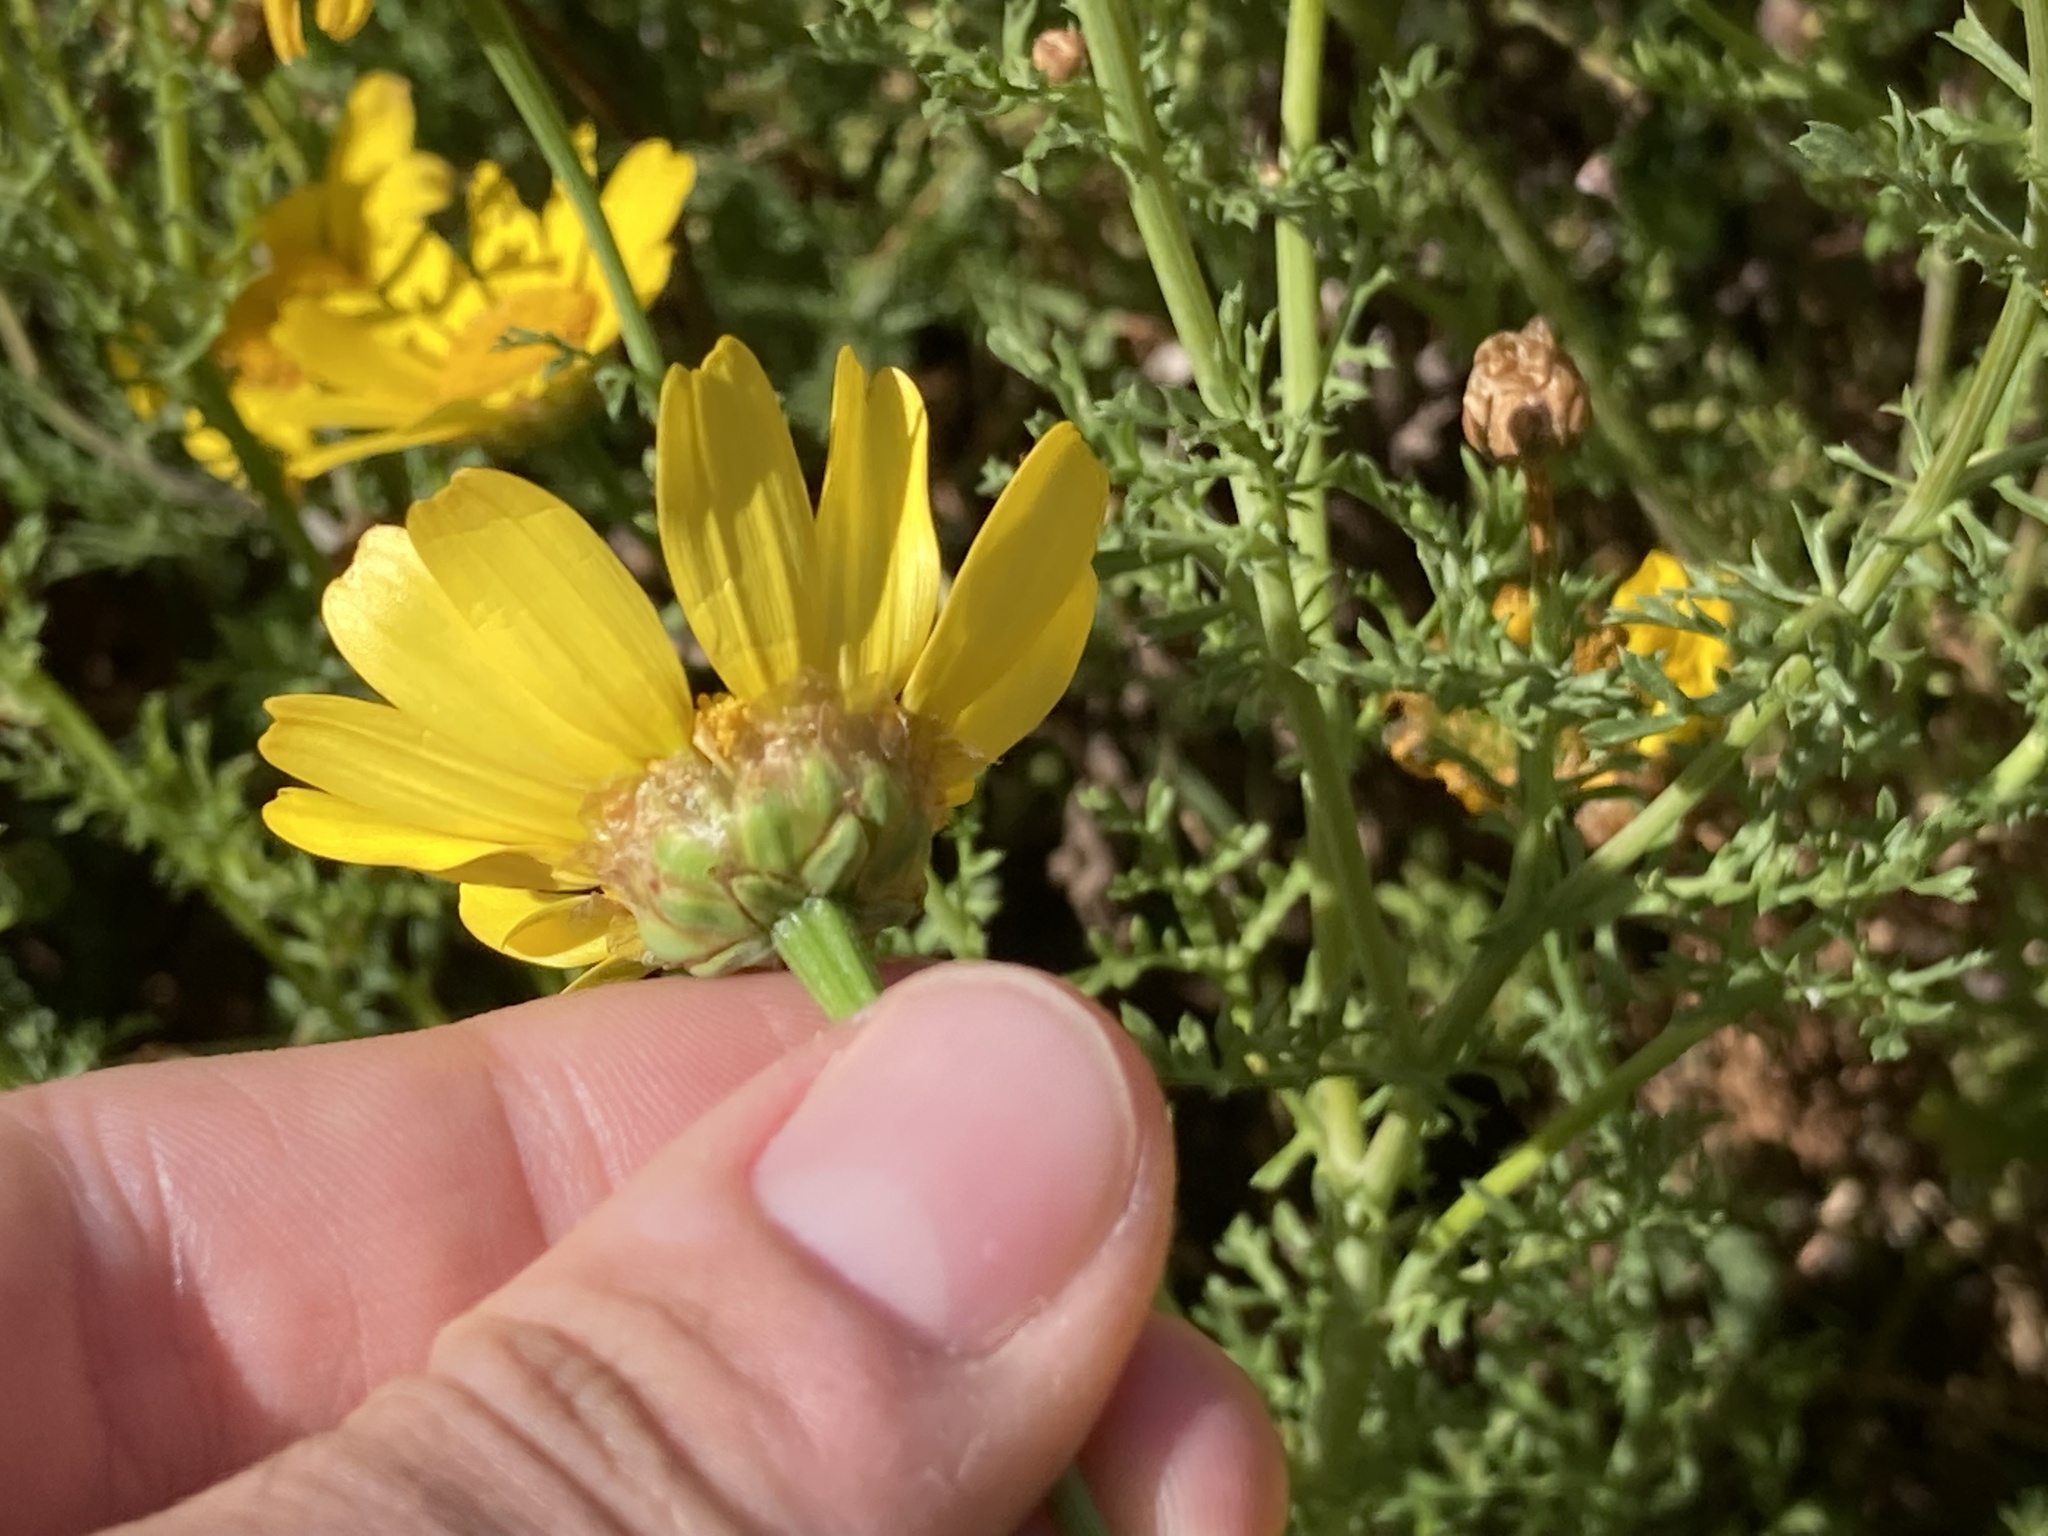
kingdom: Plantae
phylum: Tracheophyta
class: Magnoliopsida
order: Asterales
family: Asteraceae
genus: Glebionis
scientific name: Glebionis coronaria
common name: Crowndaisy
